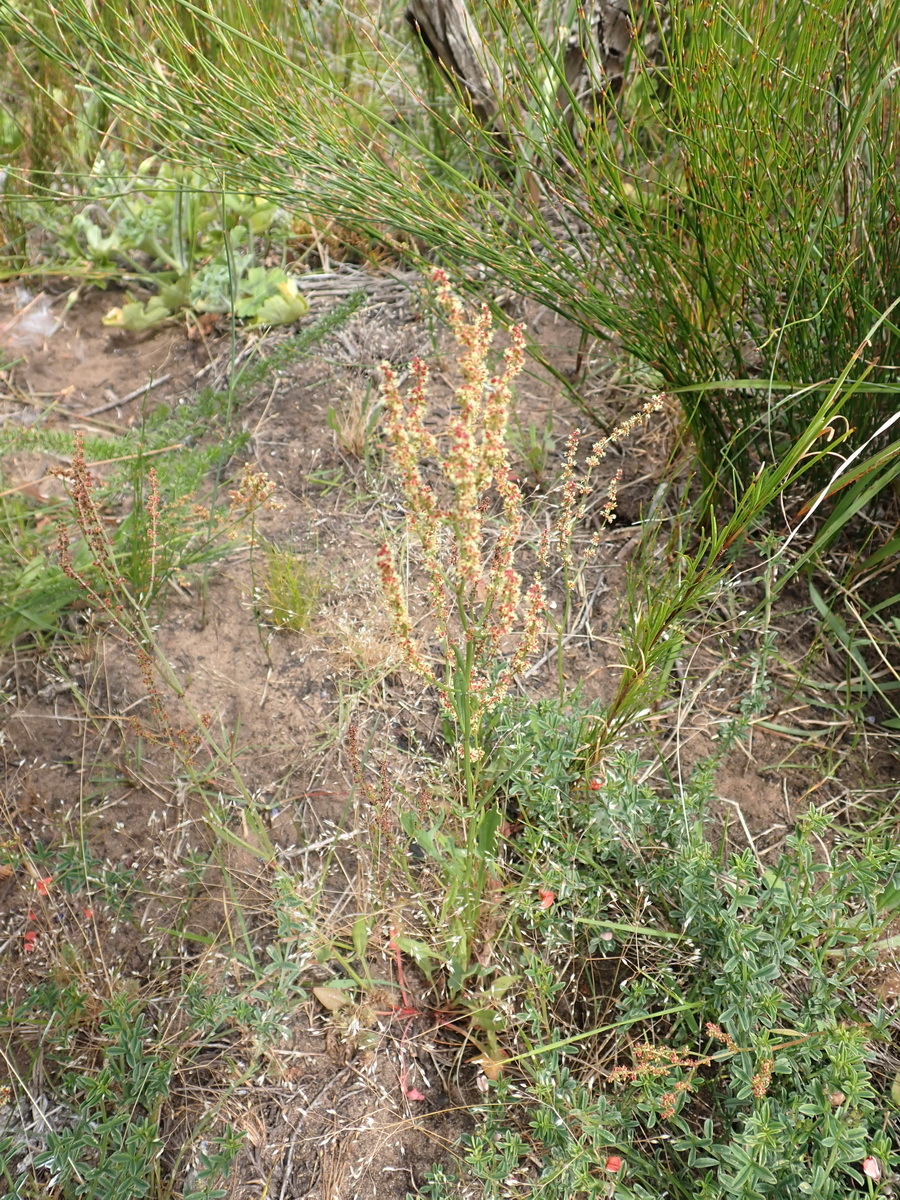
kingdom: Plantae
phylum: Tracheophyta
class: Magnoliopsida
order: Caryophyllales
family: Polygonaceae
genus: Rumex
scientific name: Rumex acetosella
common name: Common sheep sorrel
